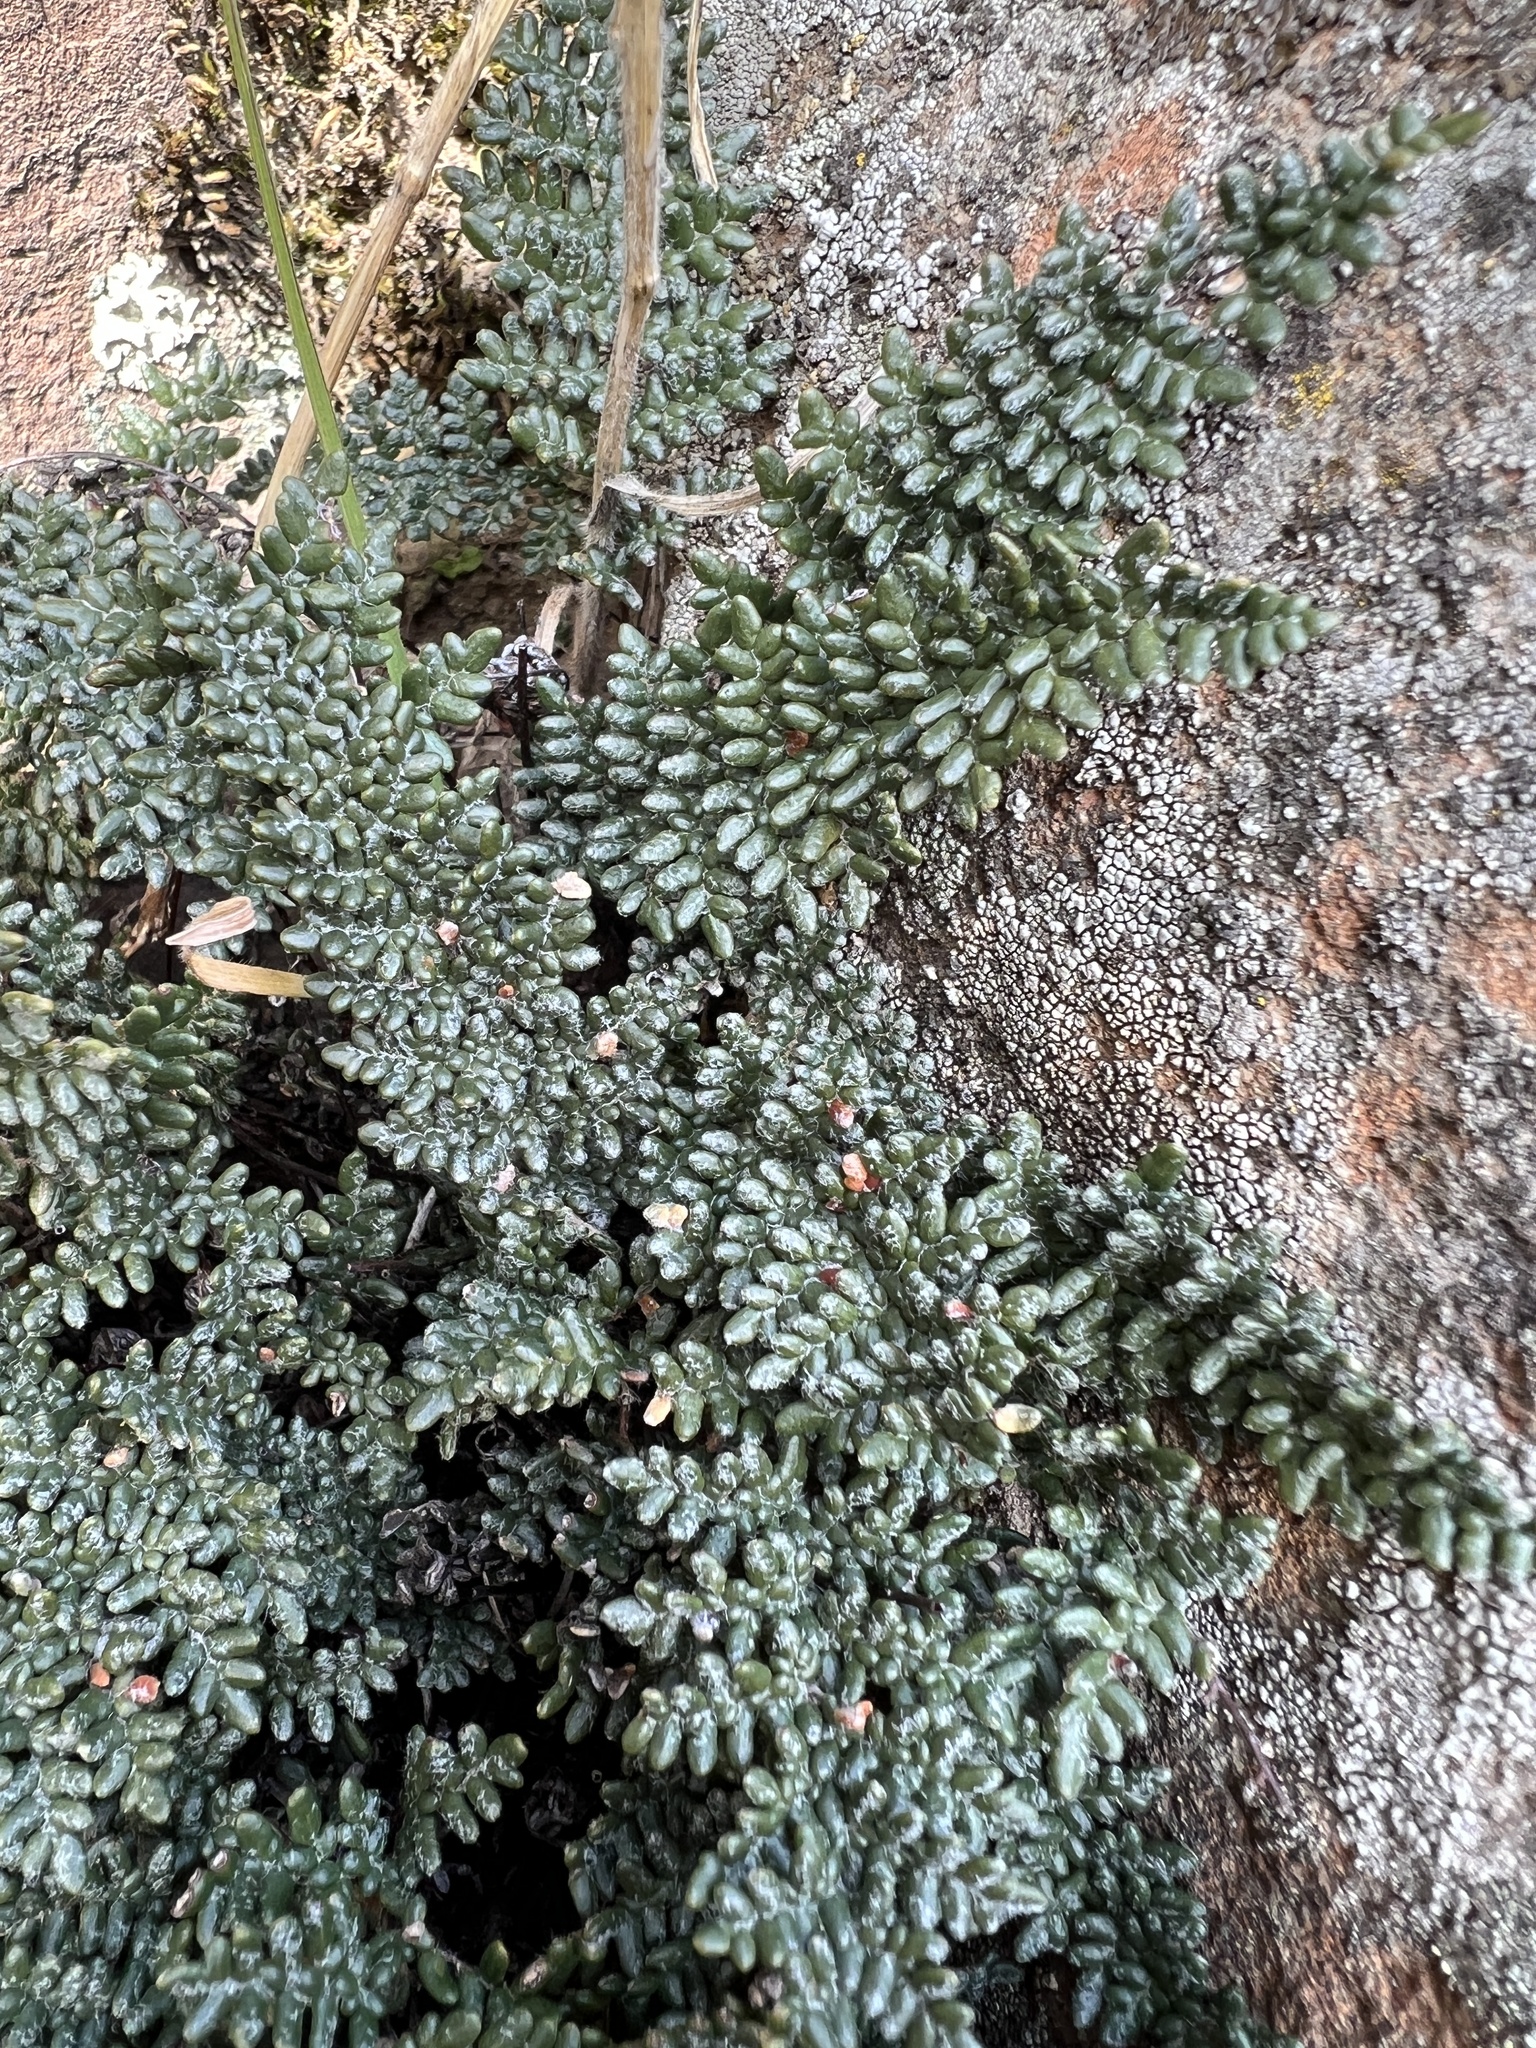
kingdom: Plantae
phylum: Tracheophyta
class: Polypodiopsida
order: Polypodiales
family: Pteridaceae
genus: Myriopteris
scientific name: Myriopteris gracillima
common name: Lace fern
